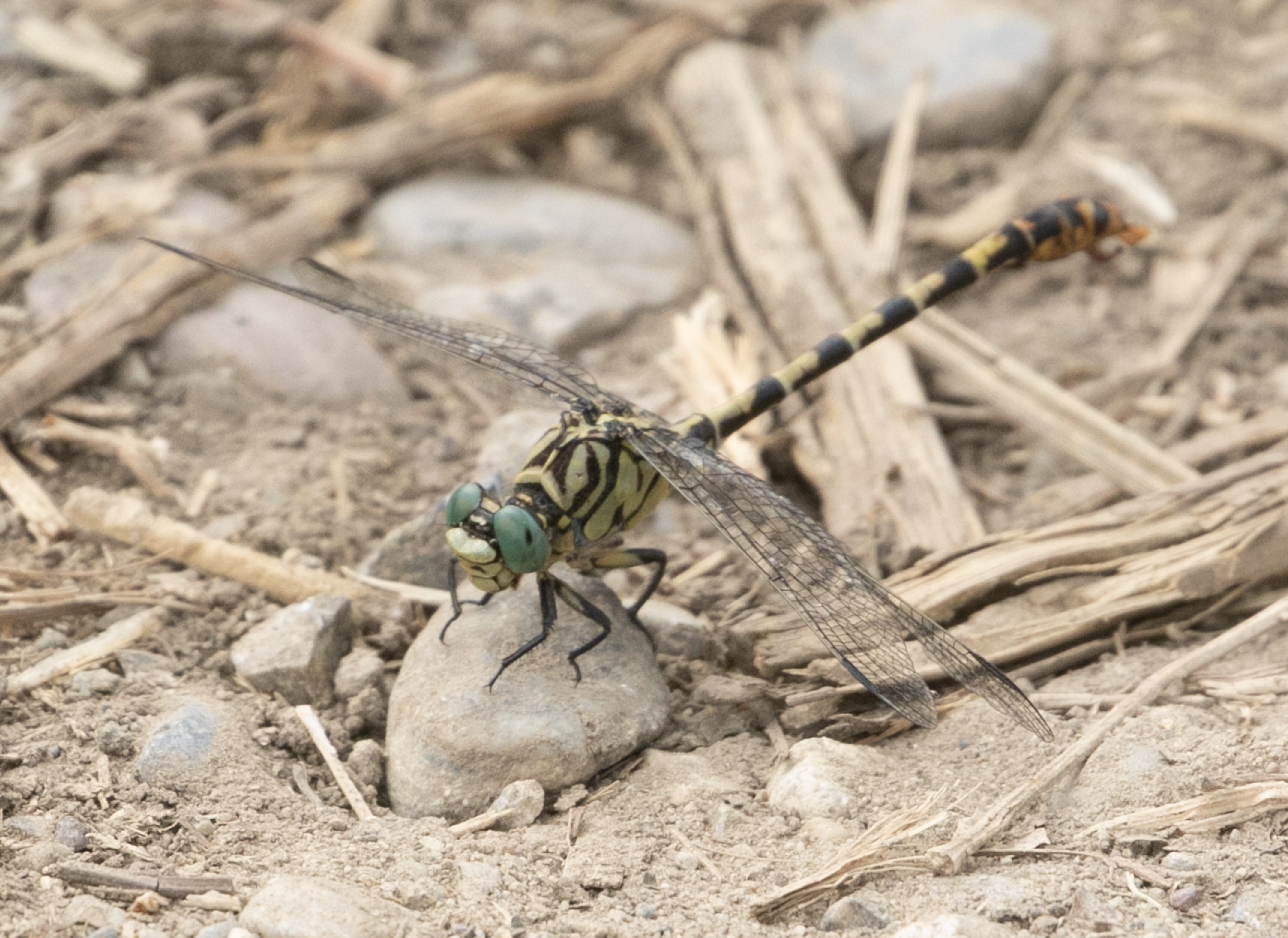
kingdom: Animalia
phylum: Arthropoda
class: Insecta
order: Odonata
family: Gomphidae
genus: Onychogomphus
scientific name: Onychogomphus forcipatus
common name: Small pincertail
